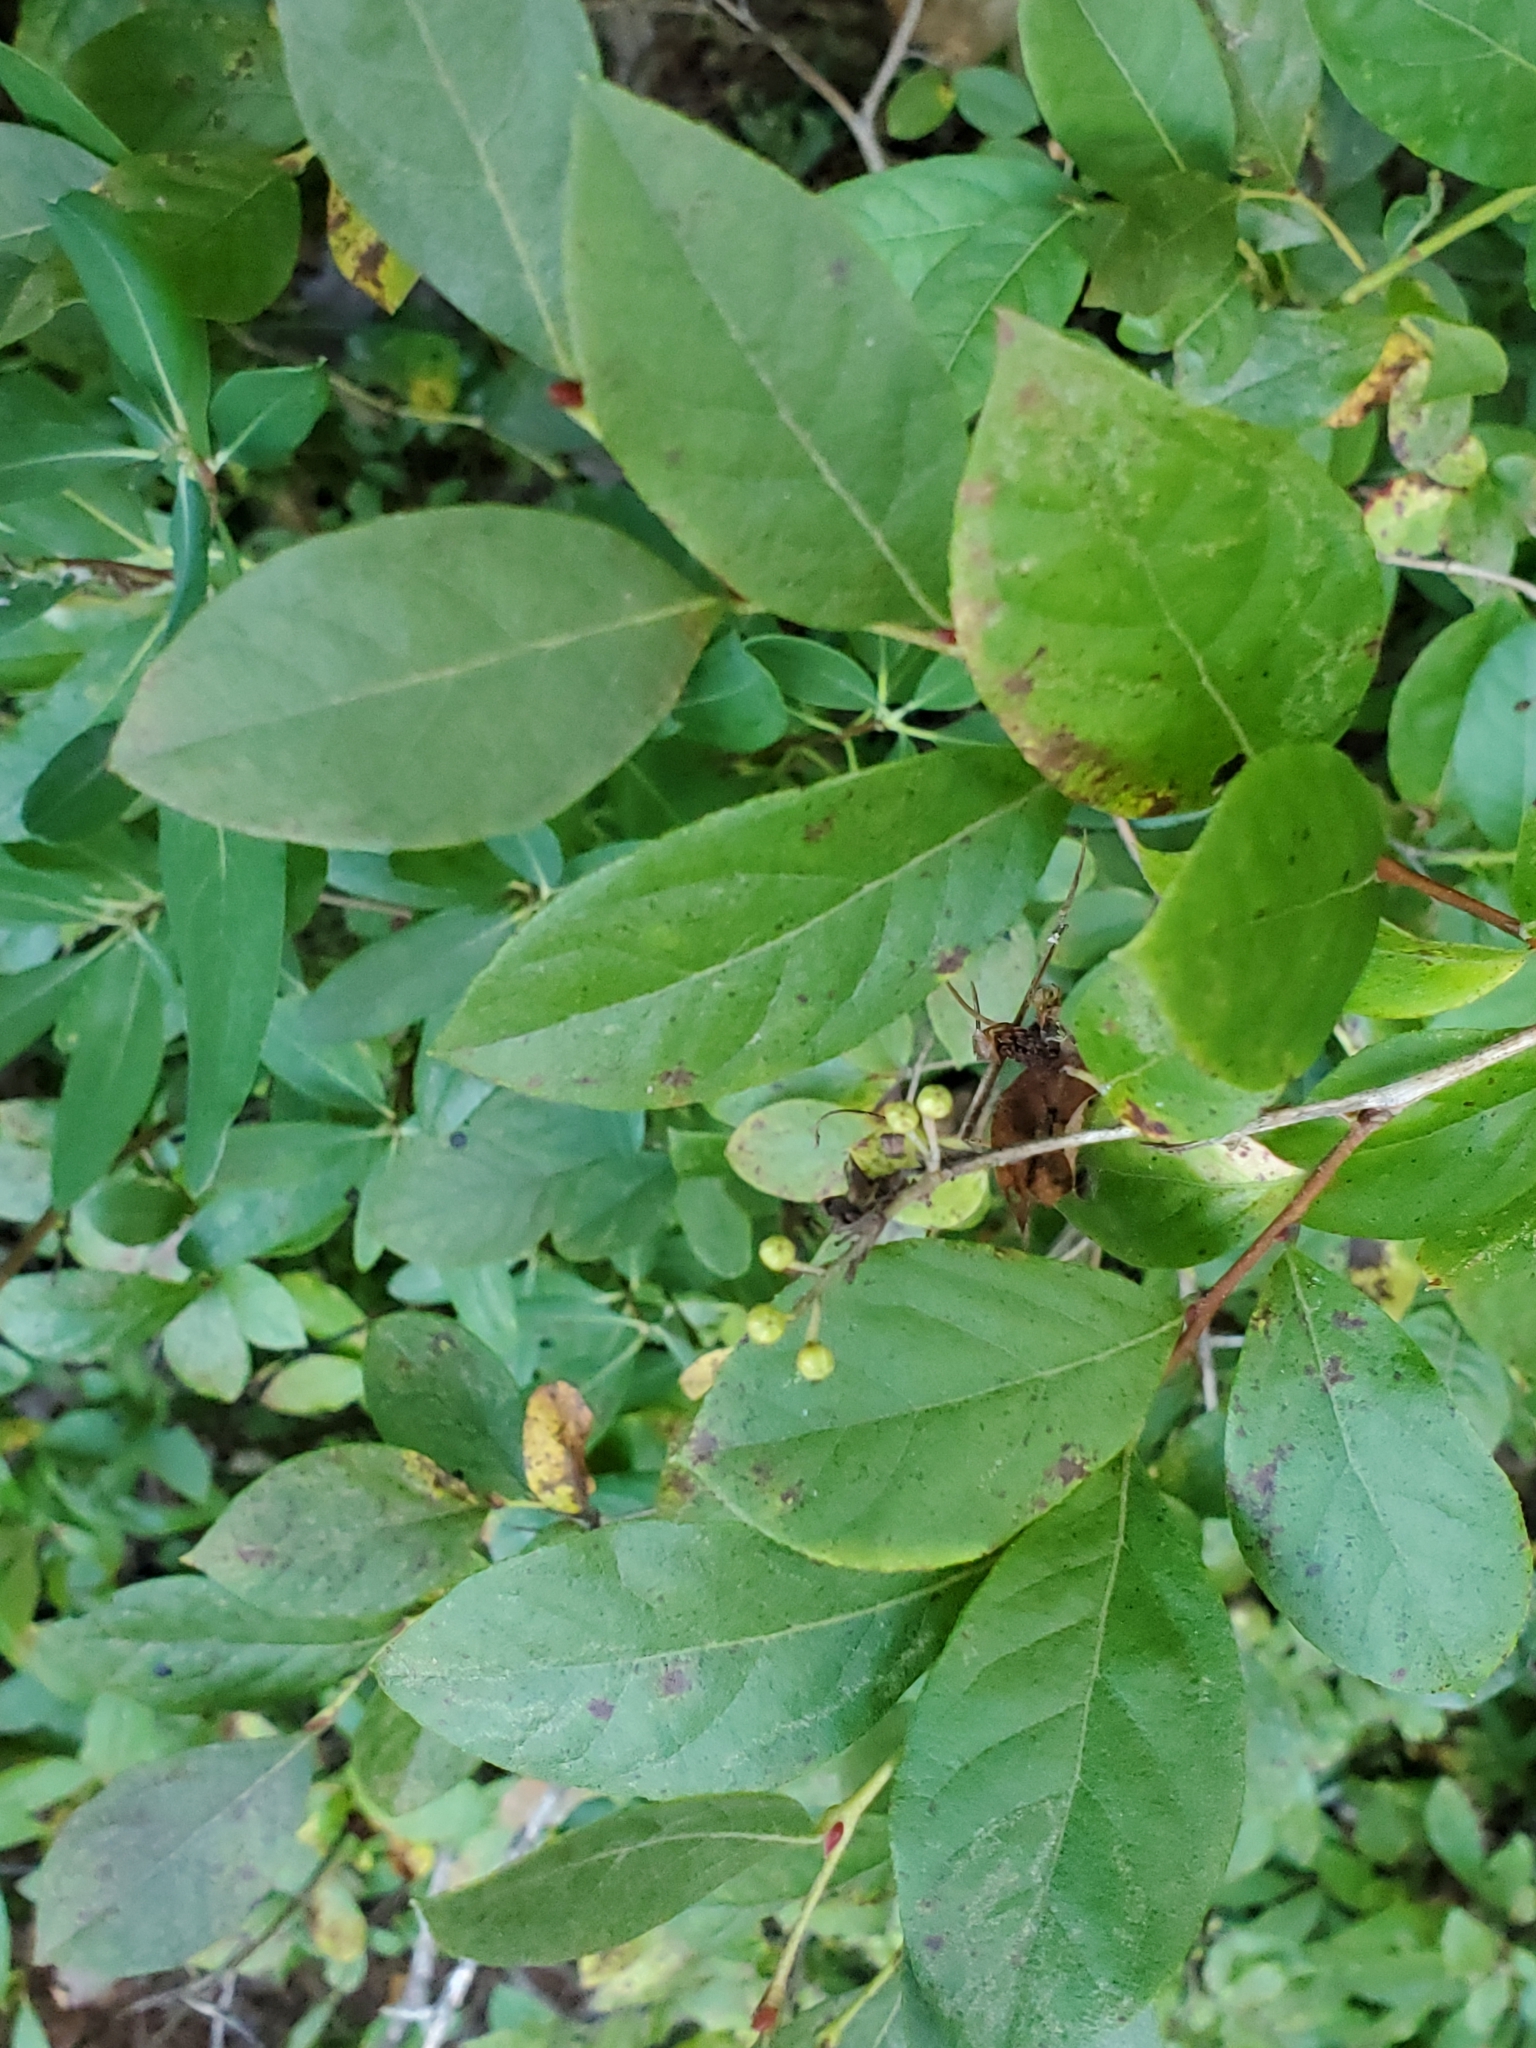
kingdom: Plantae
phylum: Tracheophyta
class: Magnoliopsida
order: Ericales
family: Ericaceae
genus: Lyonia
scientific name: Lyonia ligustrina
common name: Maleberry
